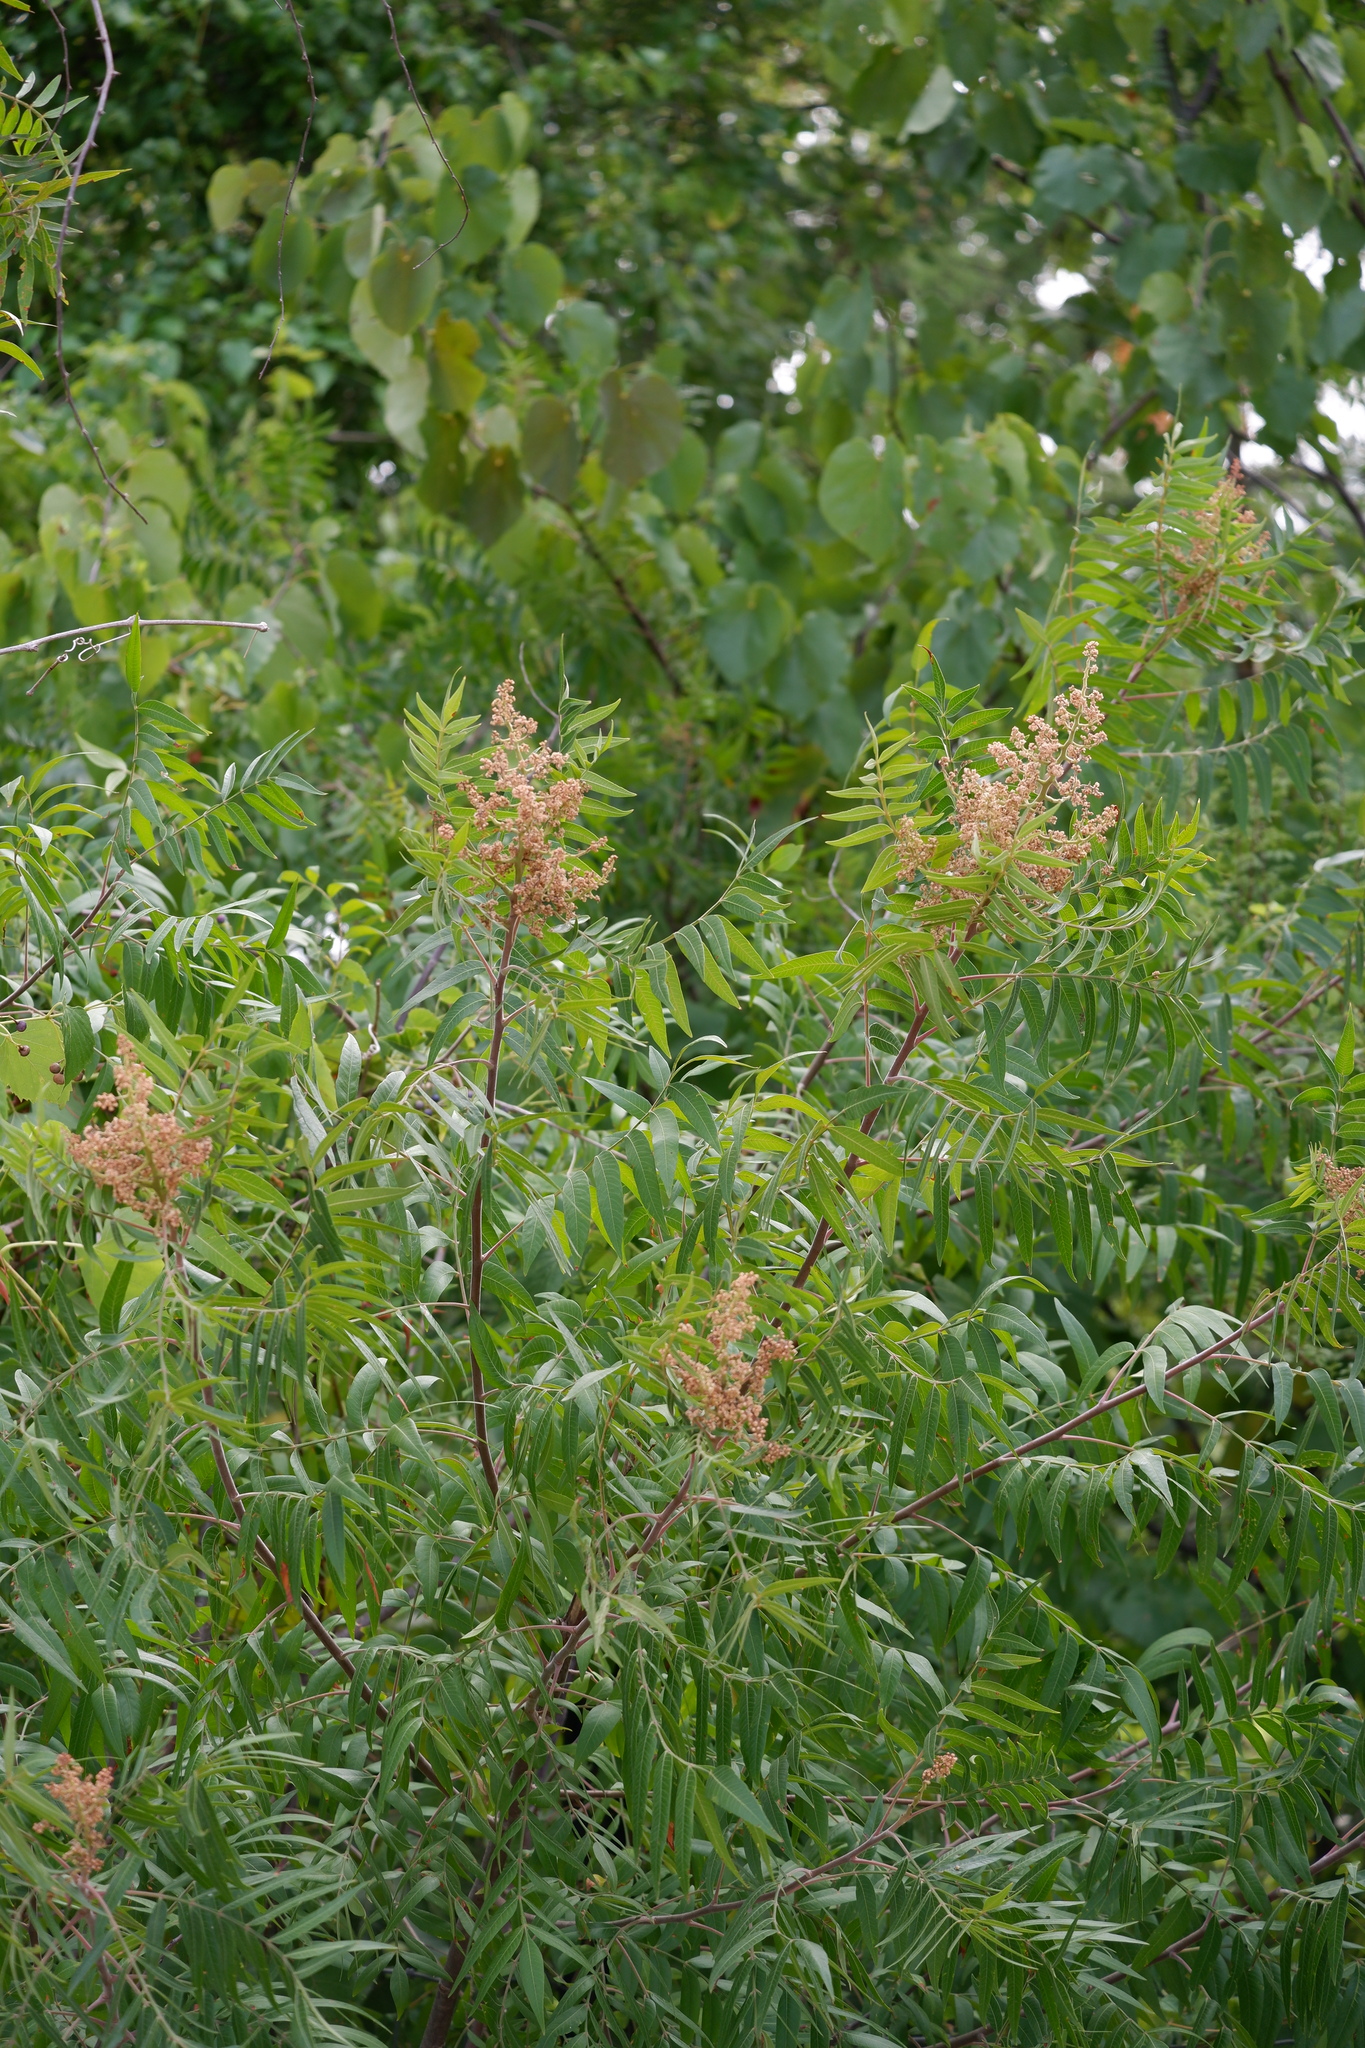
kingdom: Plantae
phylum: Tracheophyta
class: Magnoliopsida
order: Sapindales
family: Anacardiaceae
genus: Rhus
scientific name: Rhus lanceolata
